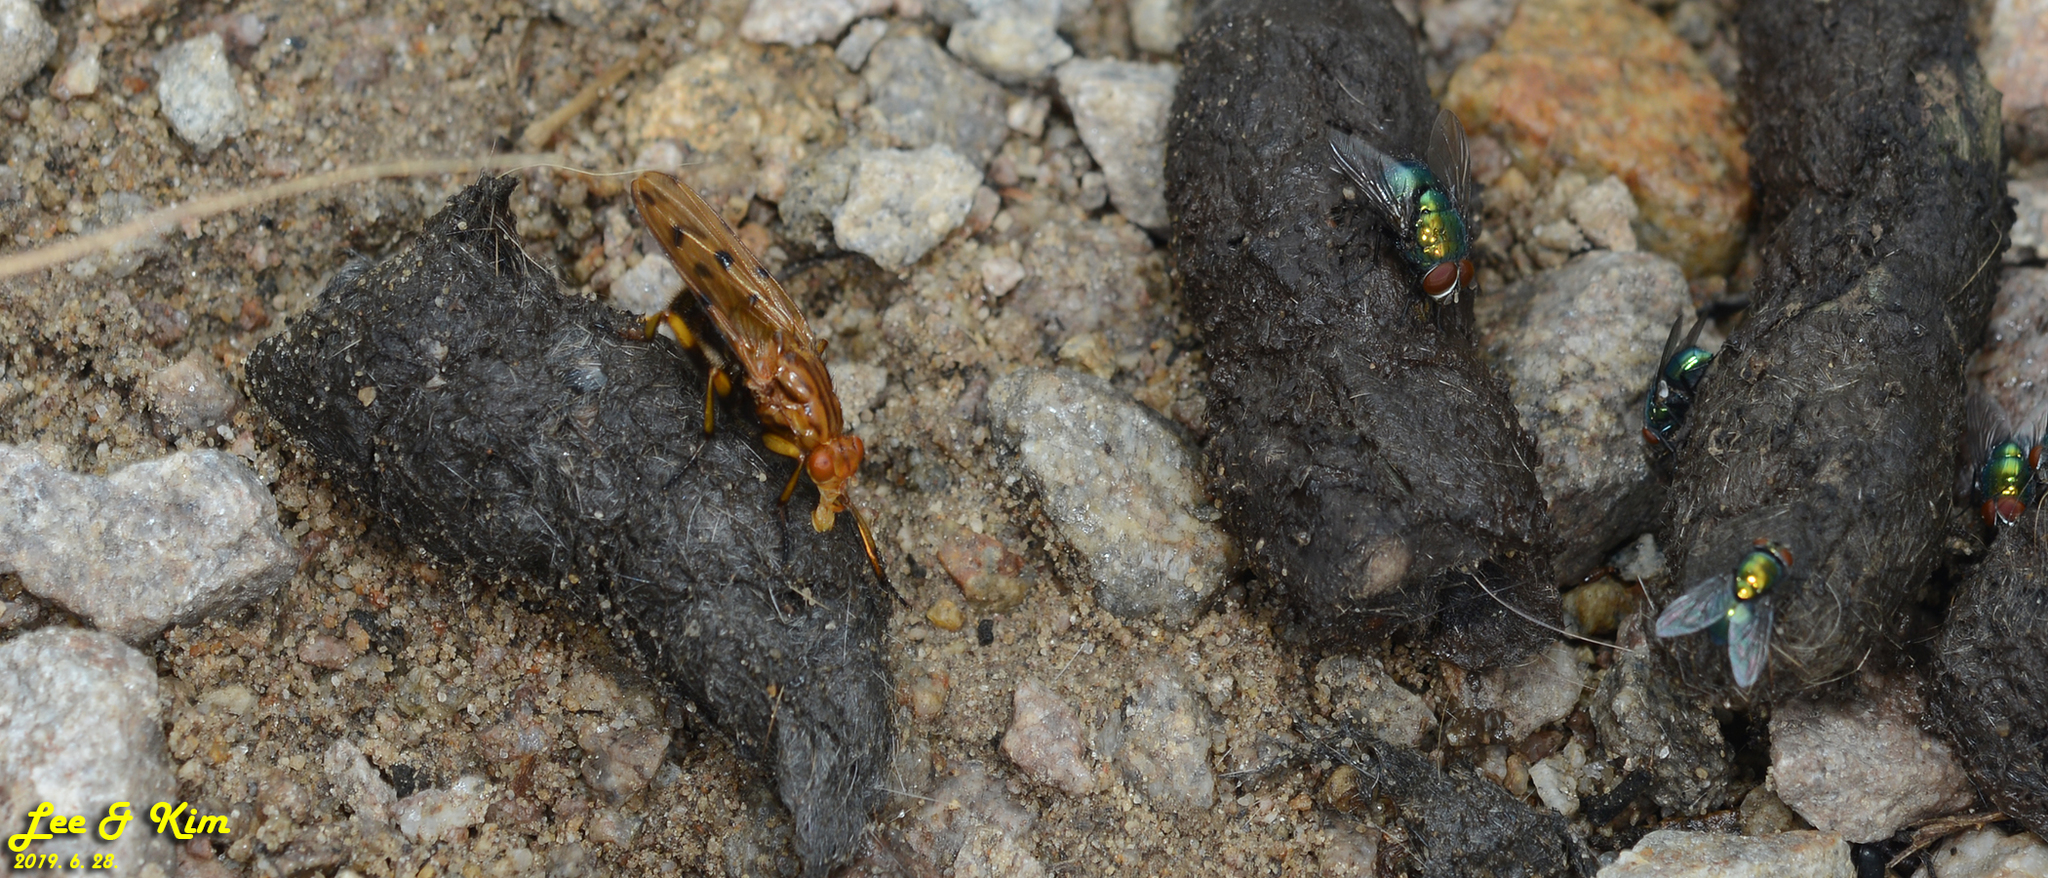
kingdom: Animalia
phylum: Arthropoda
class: Insecta
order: Diptera
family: Dryomyzidae
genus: Dryomyza
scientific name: Dryomyza formosa
